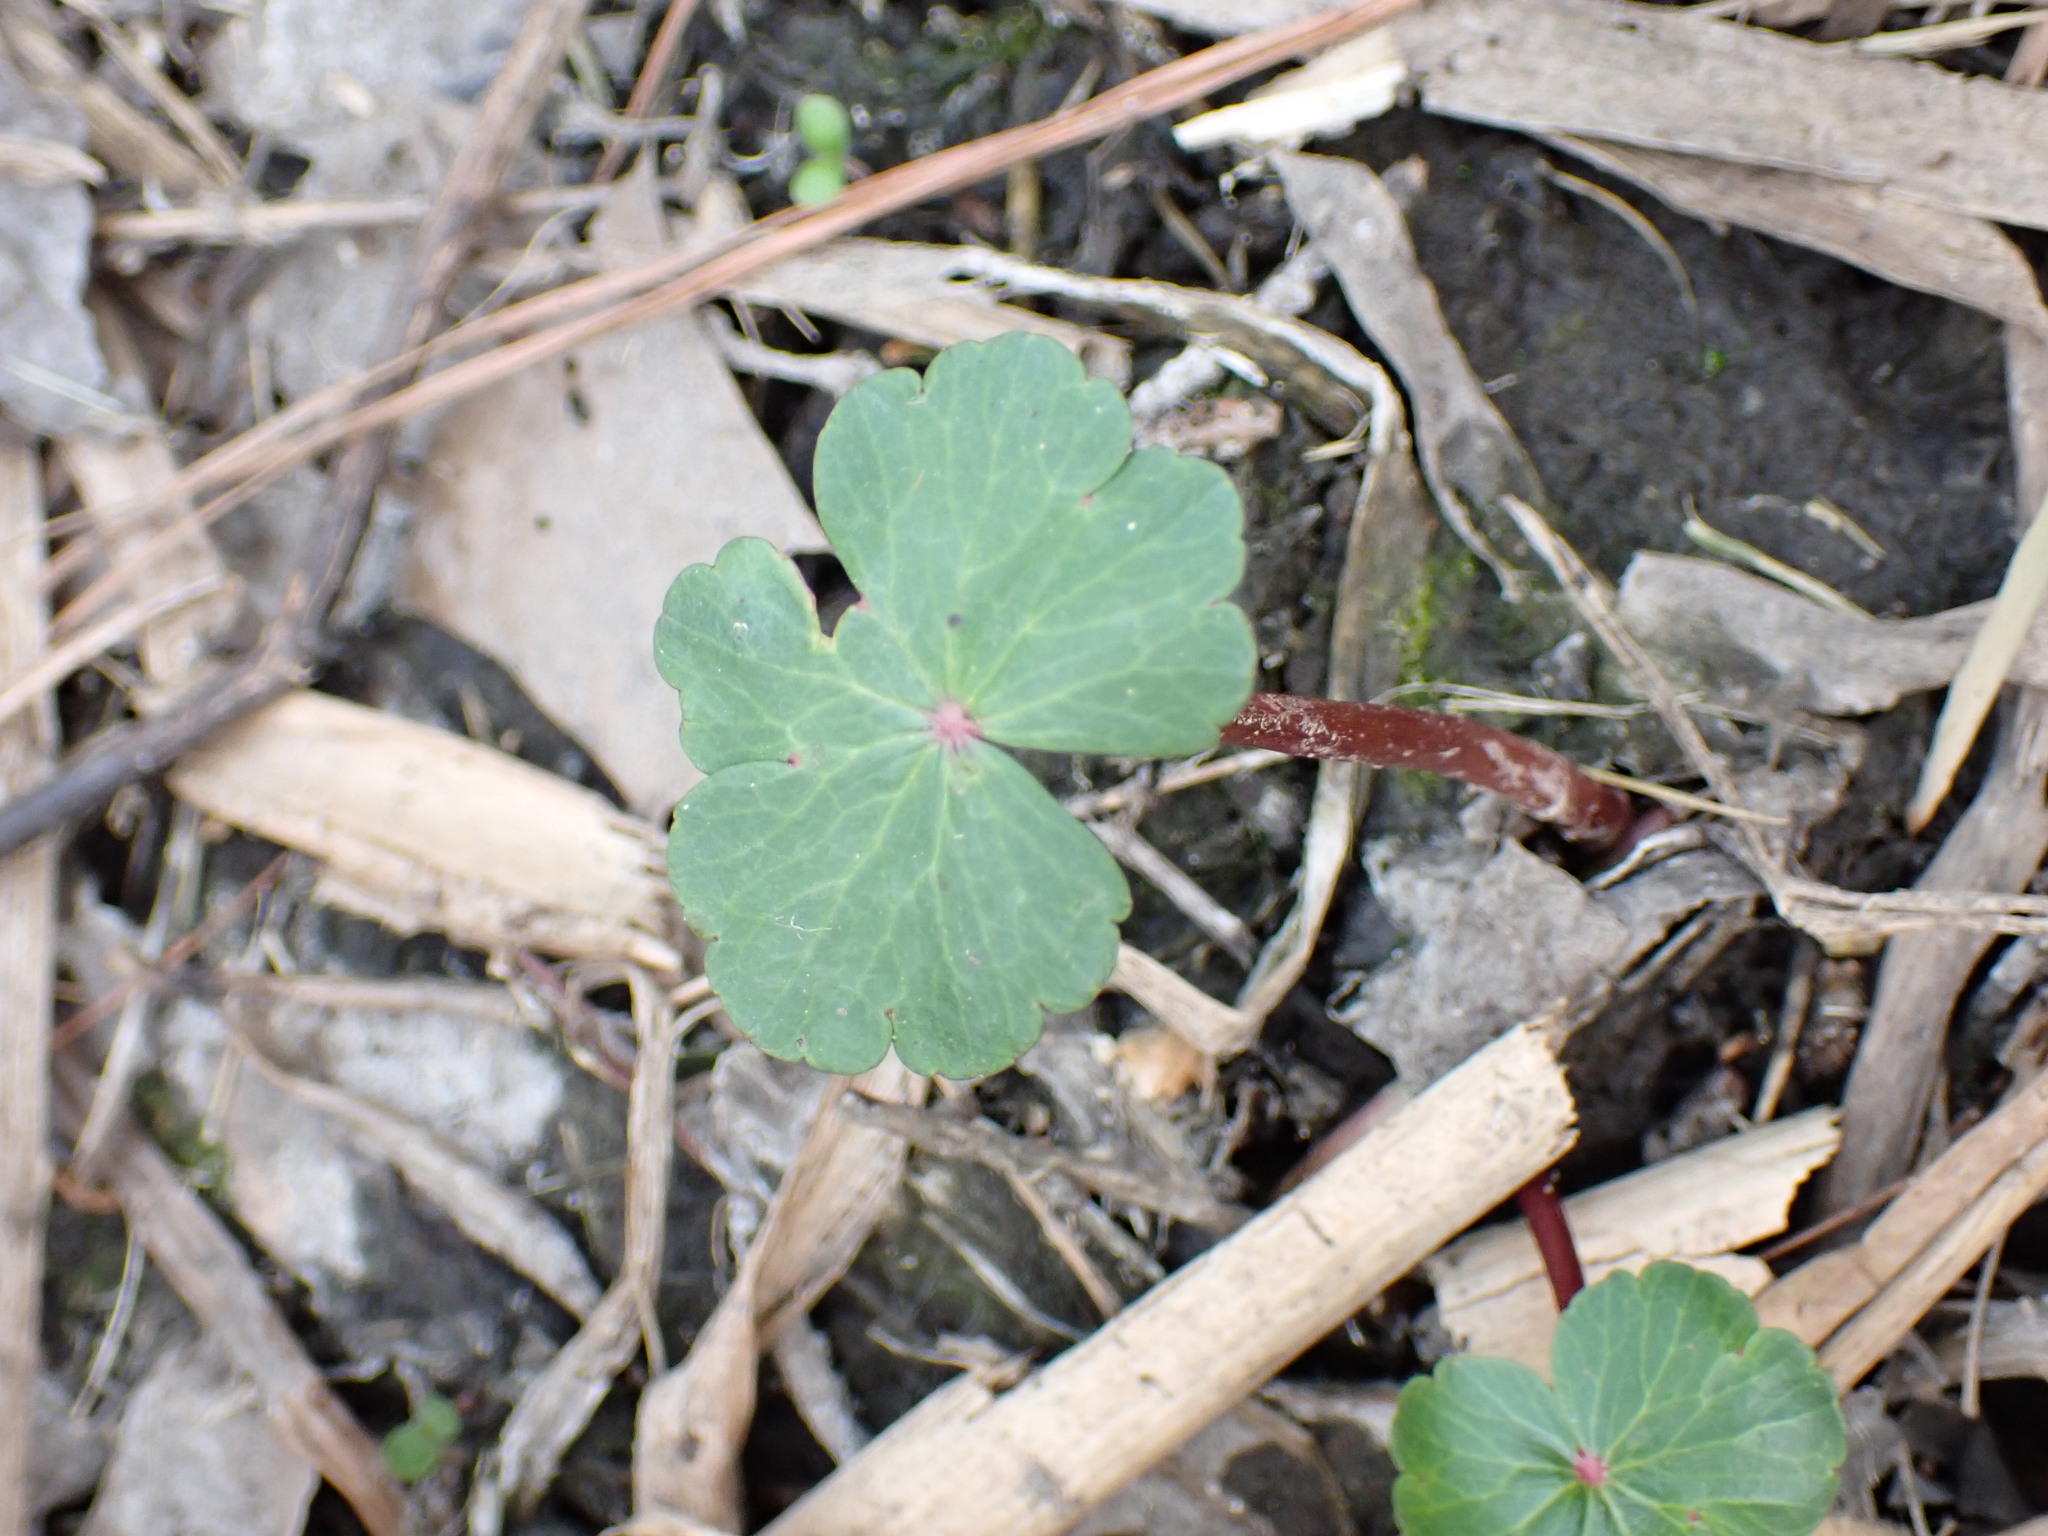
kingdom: Plantae
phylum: Tracheophyta
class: Magnoliopsida
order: Apiales
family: Araliaceae
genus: Hydrocotyle
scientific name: Hydrocotyle ranunculoides
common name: Floating pennywort
